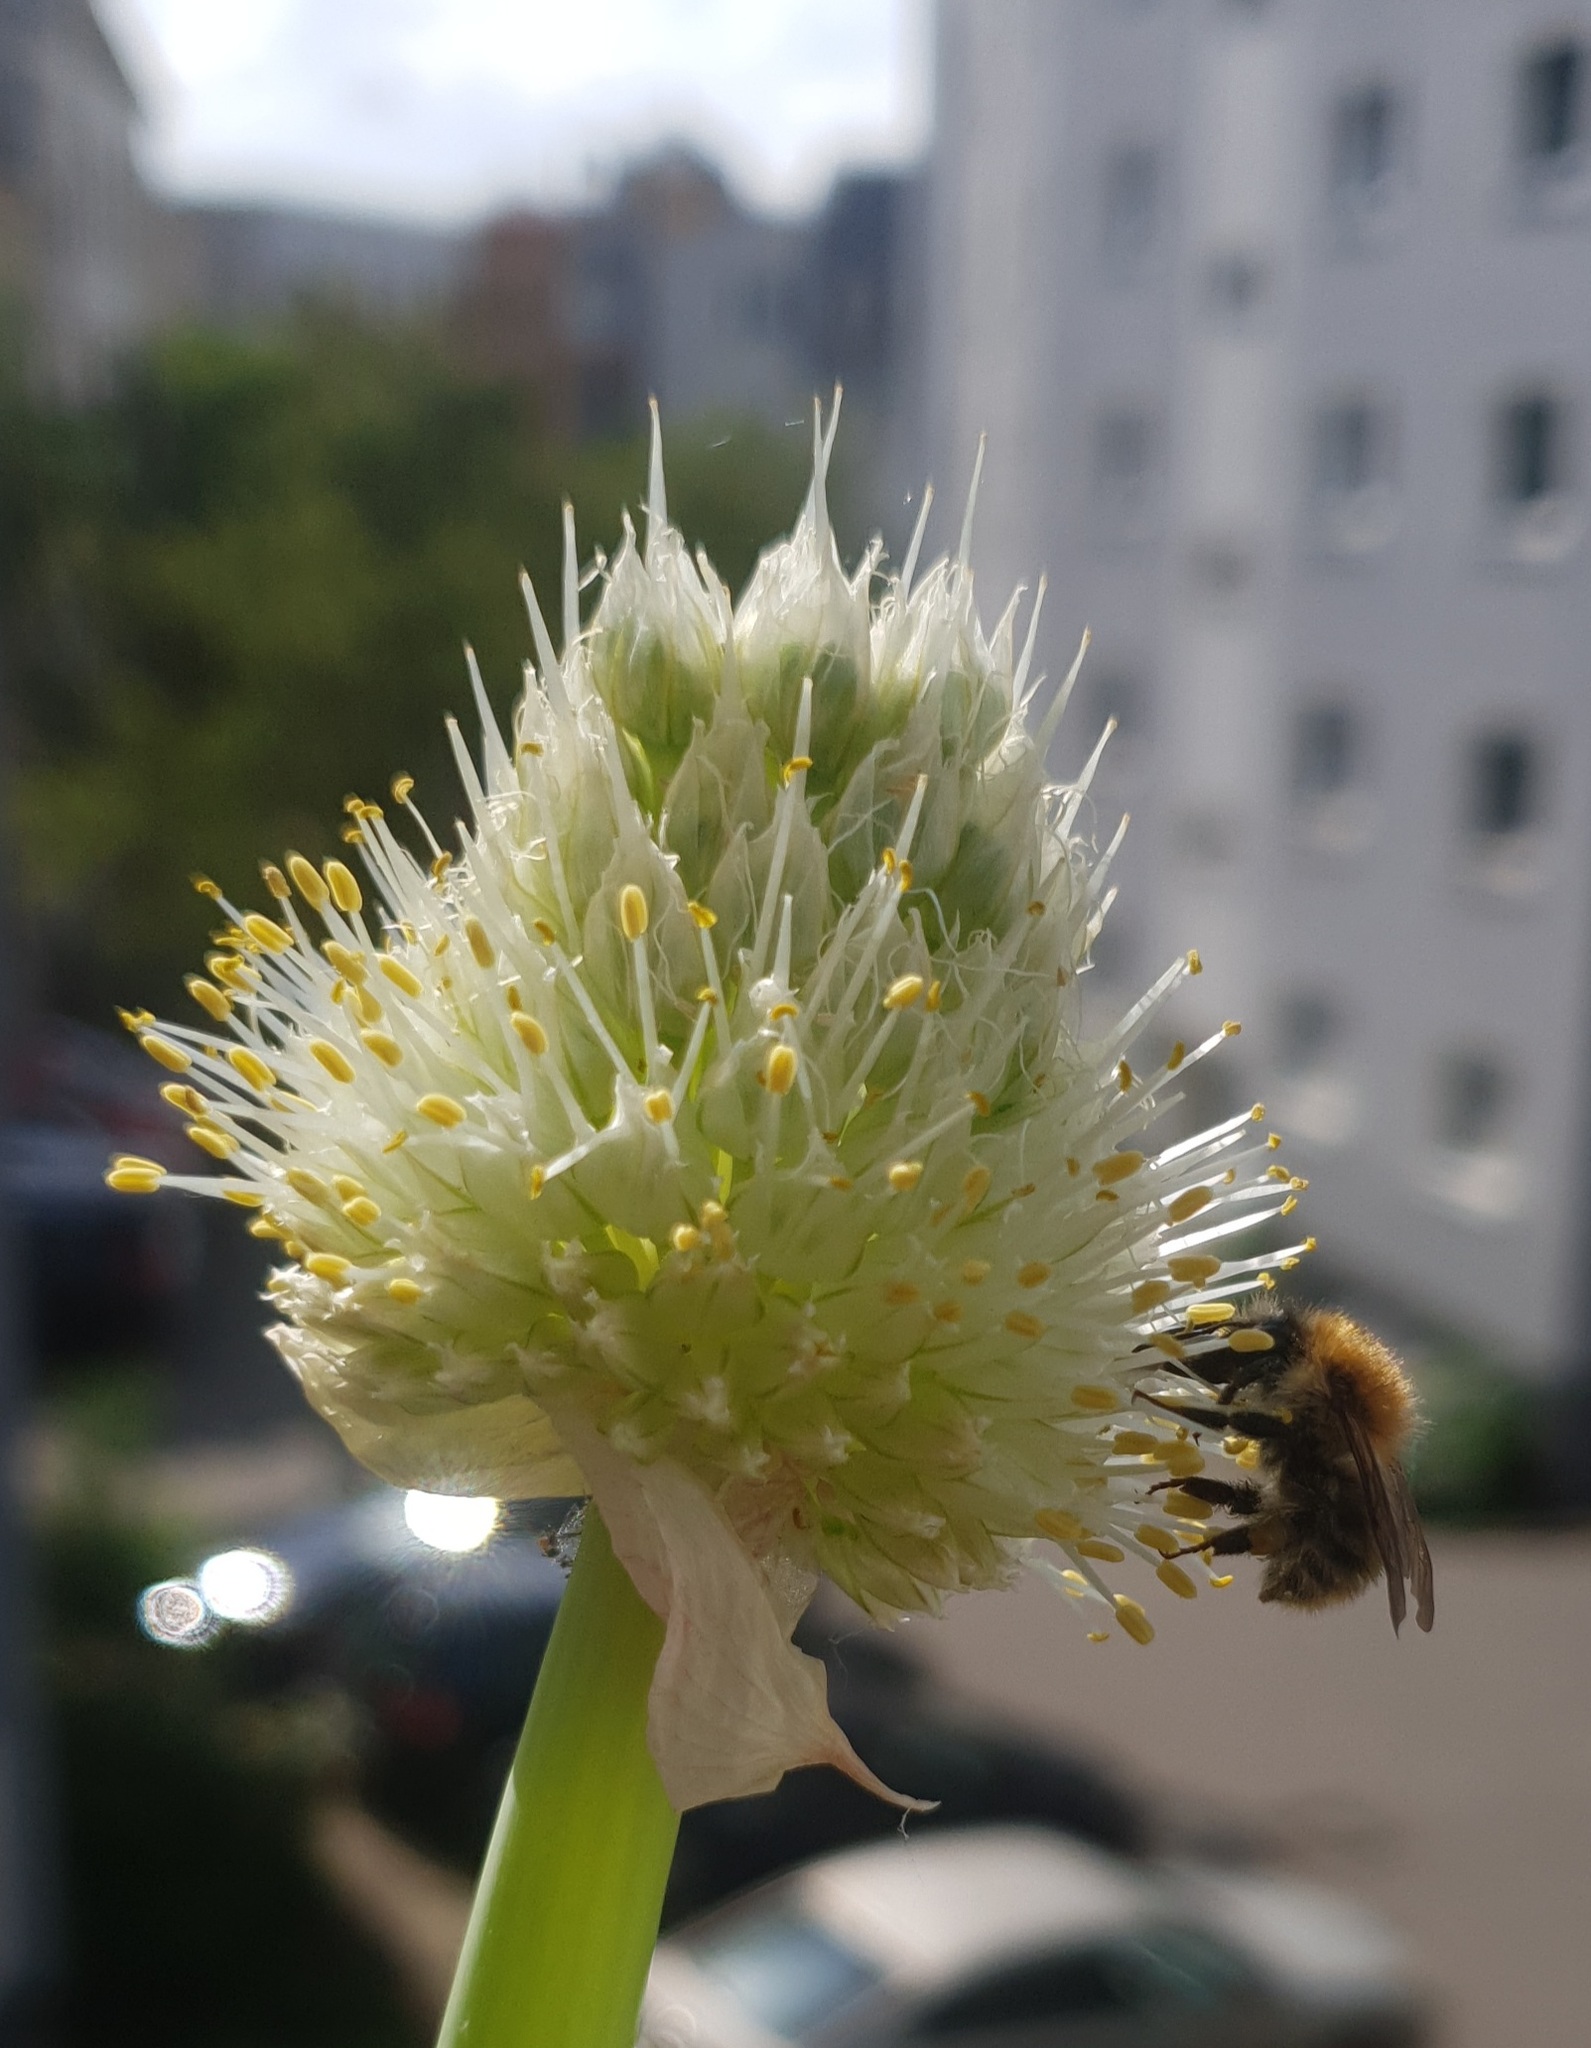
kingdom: Animalia
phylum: Arthropoda
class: Insecta
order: Hymenoptera
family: Apidae
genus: Bombus
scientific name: Bombus pascuorum
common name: Common carder bee
